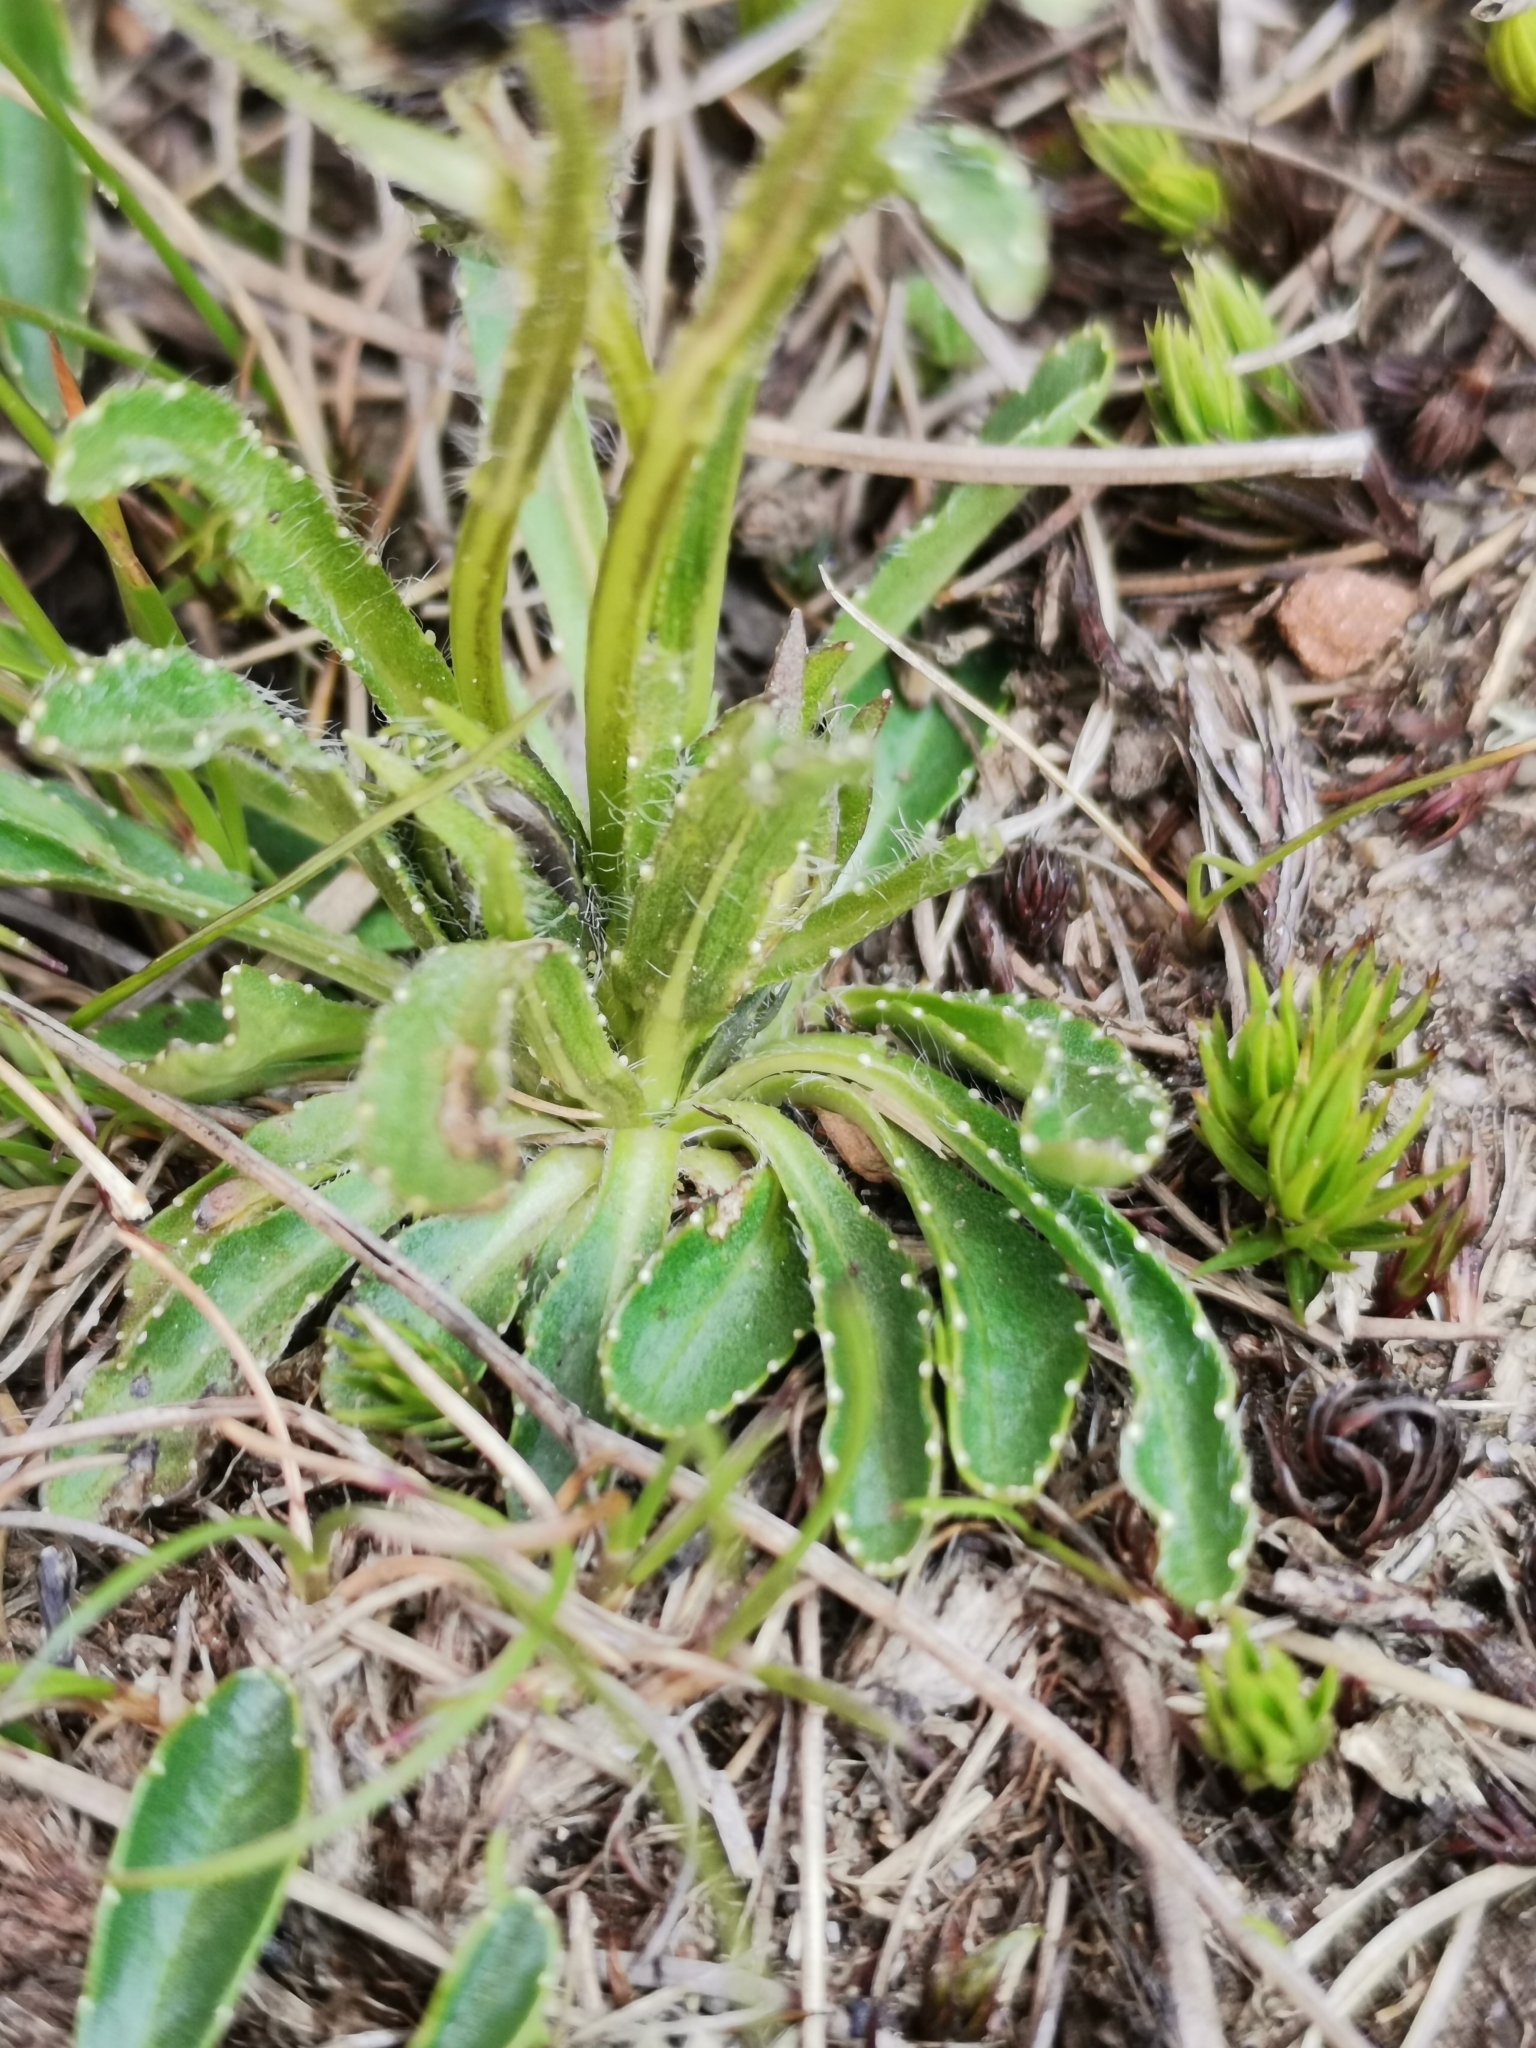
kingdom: Plantae
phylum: Tracheophyta
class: Magnoliopsida
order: Asterales
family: Campanulaceae
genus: Campanula
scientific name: Campanula alpina
